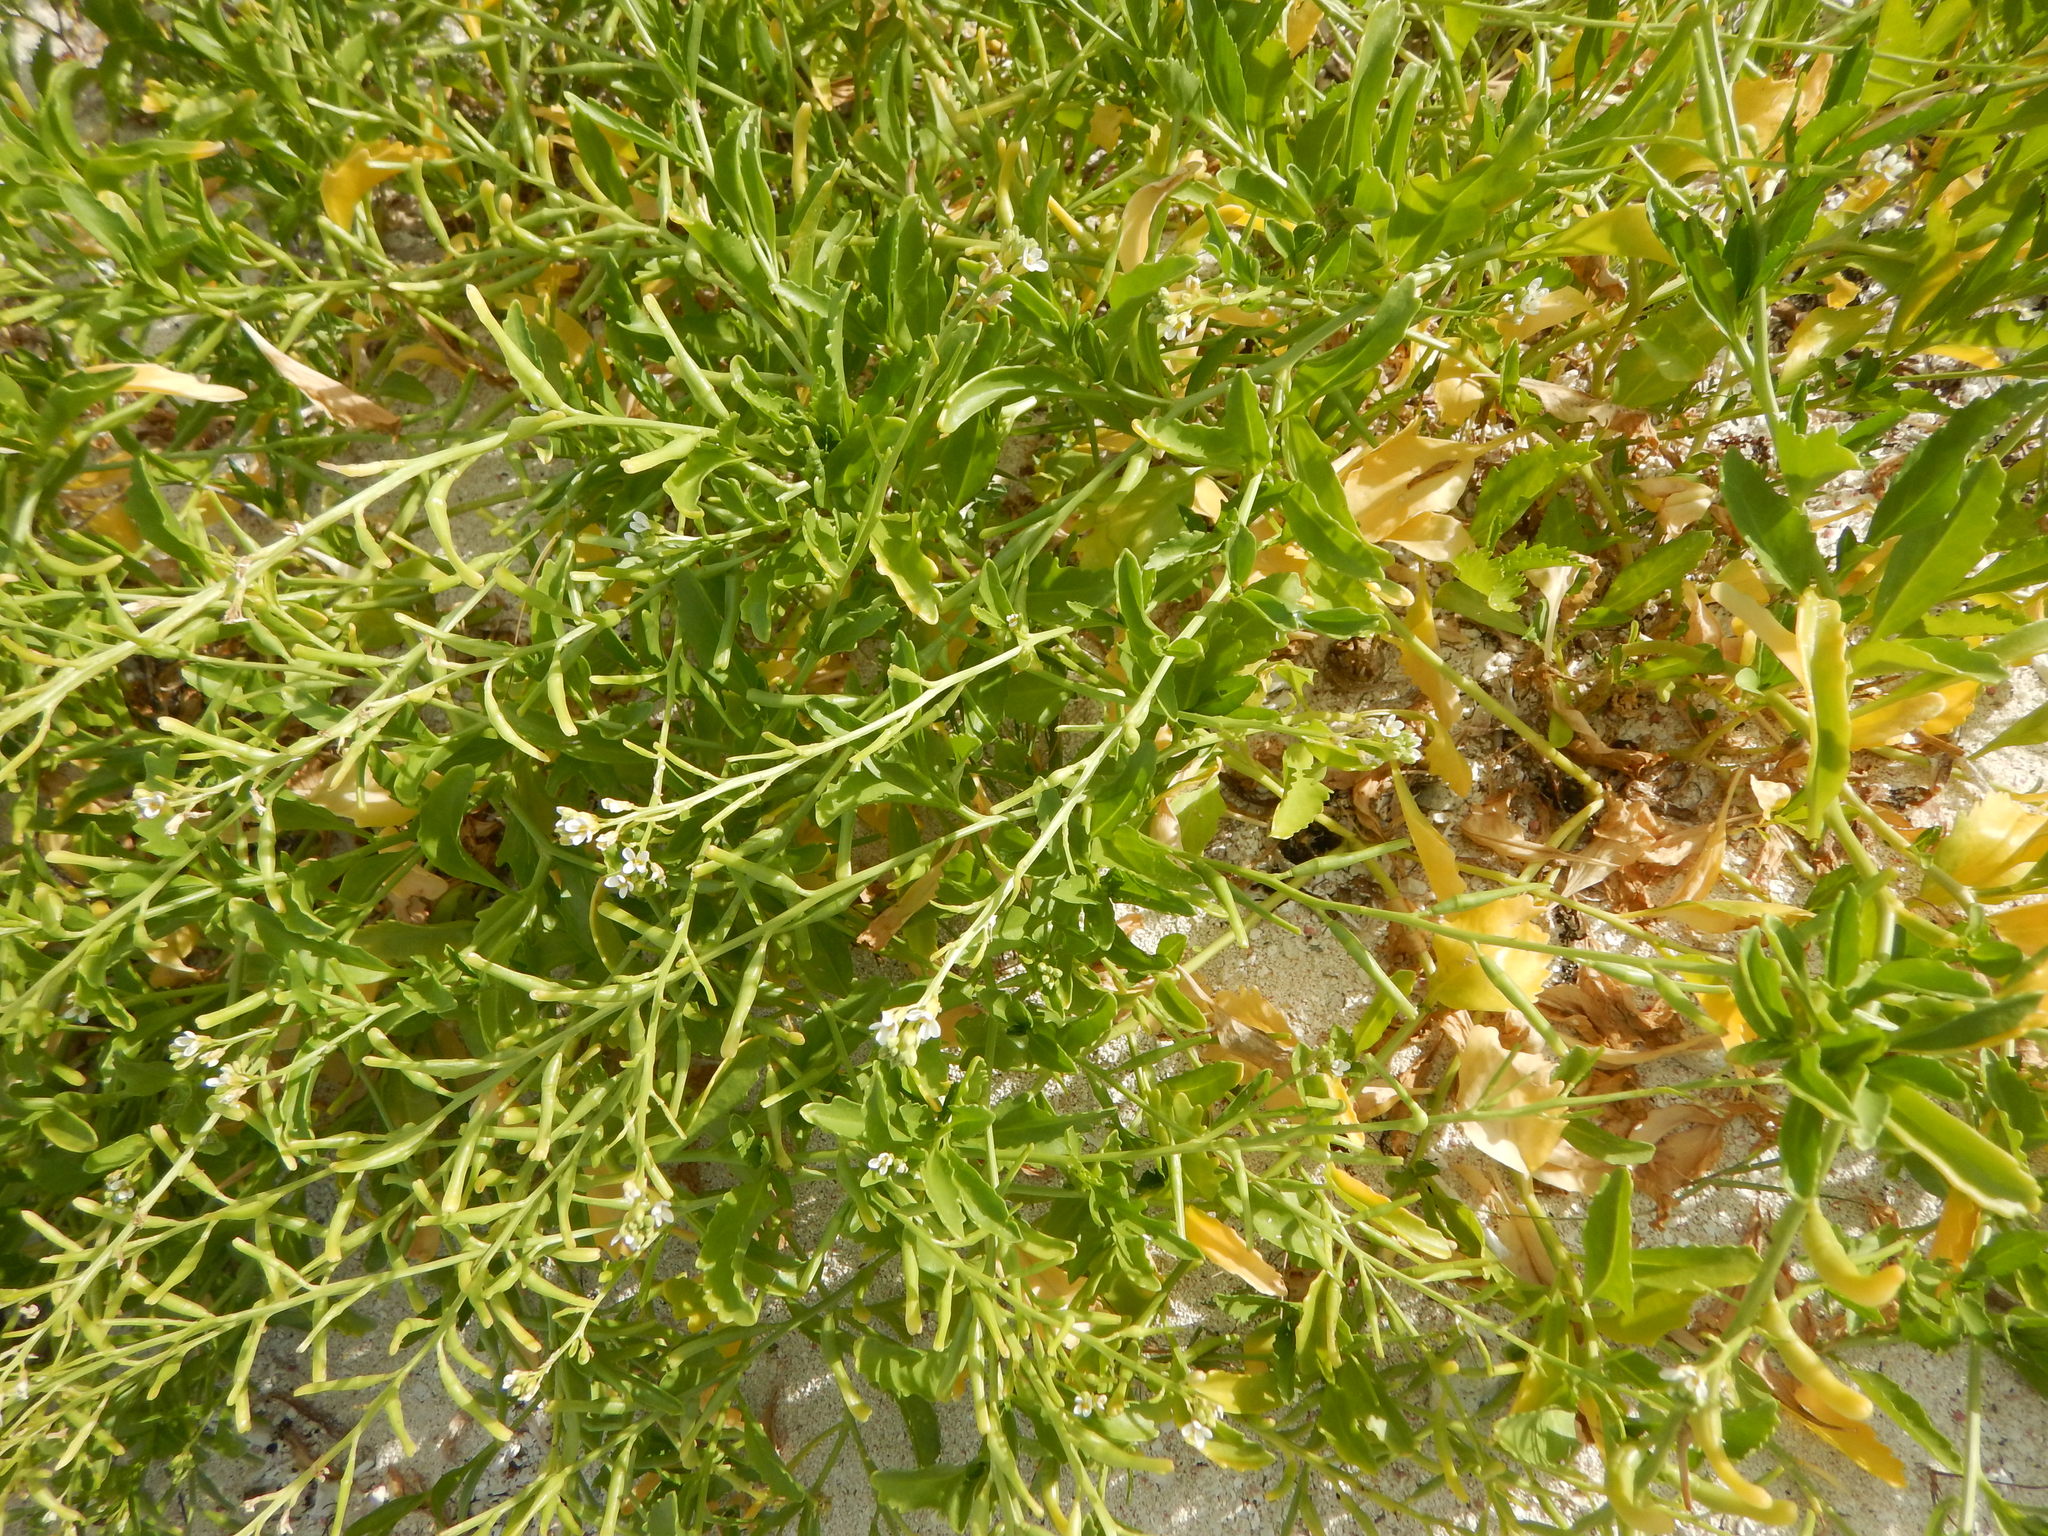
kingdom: Plantae
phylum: Tracheophyta
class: Magnoliopsida
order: Brassicales
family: Brassicaceae
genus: Cakile
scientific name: Cakile lanceolata
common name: Sea rocket
